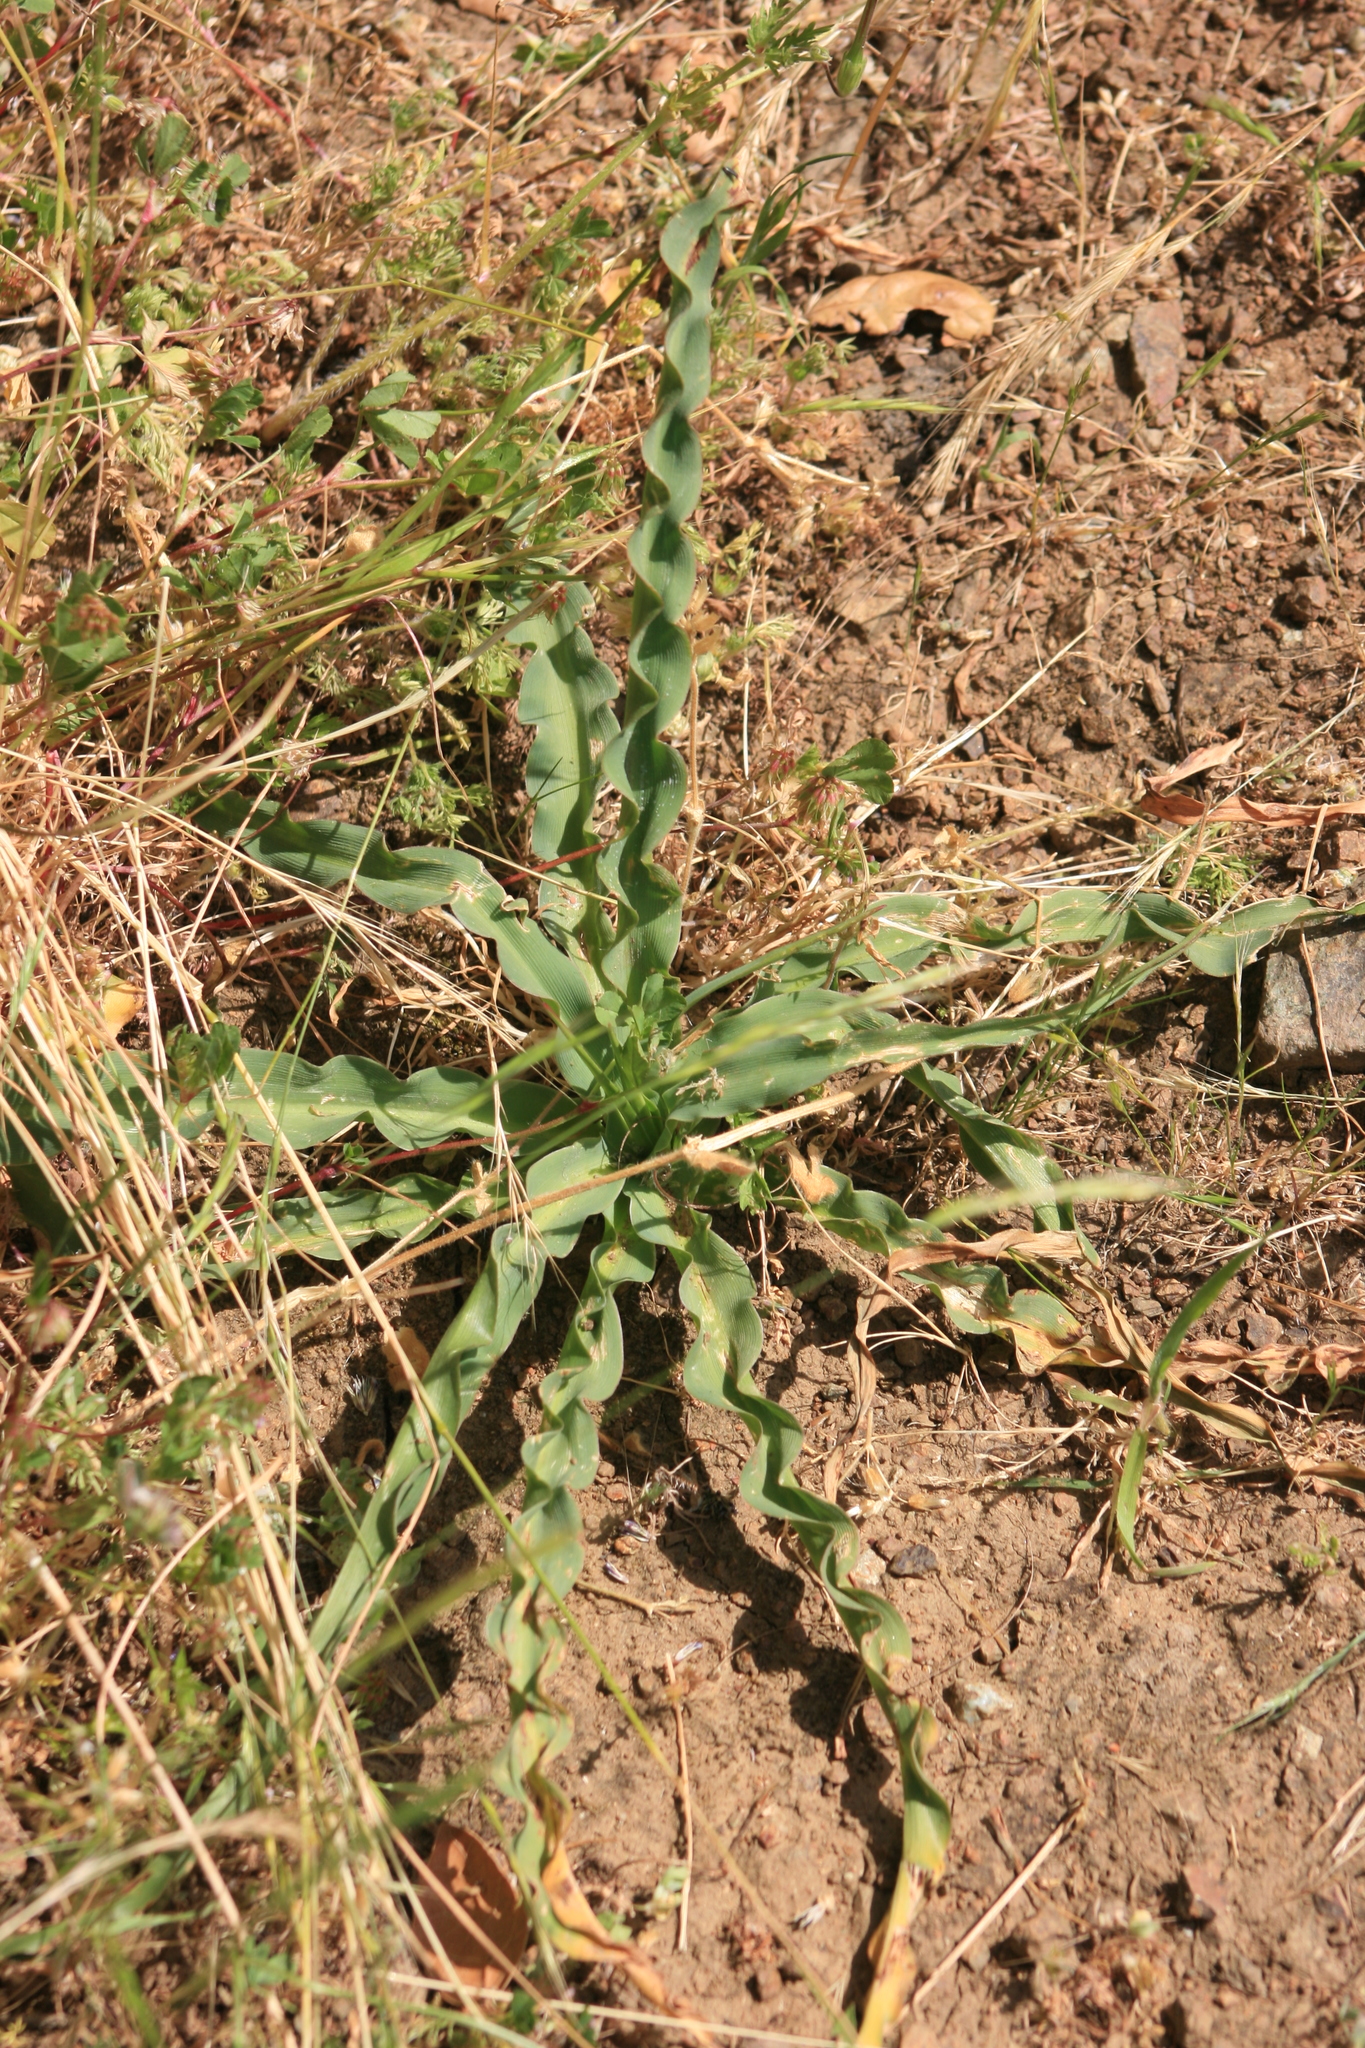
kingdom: Plantae
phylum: Tracheophyta
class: Liliopsida
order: Asparagales
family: Asparagaceae
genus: Chlorogalum
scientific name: Chlorogalum pomeridianum
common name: Amole
